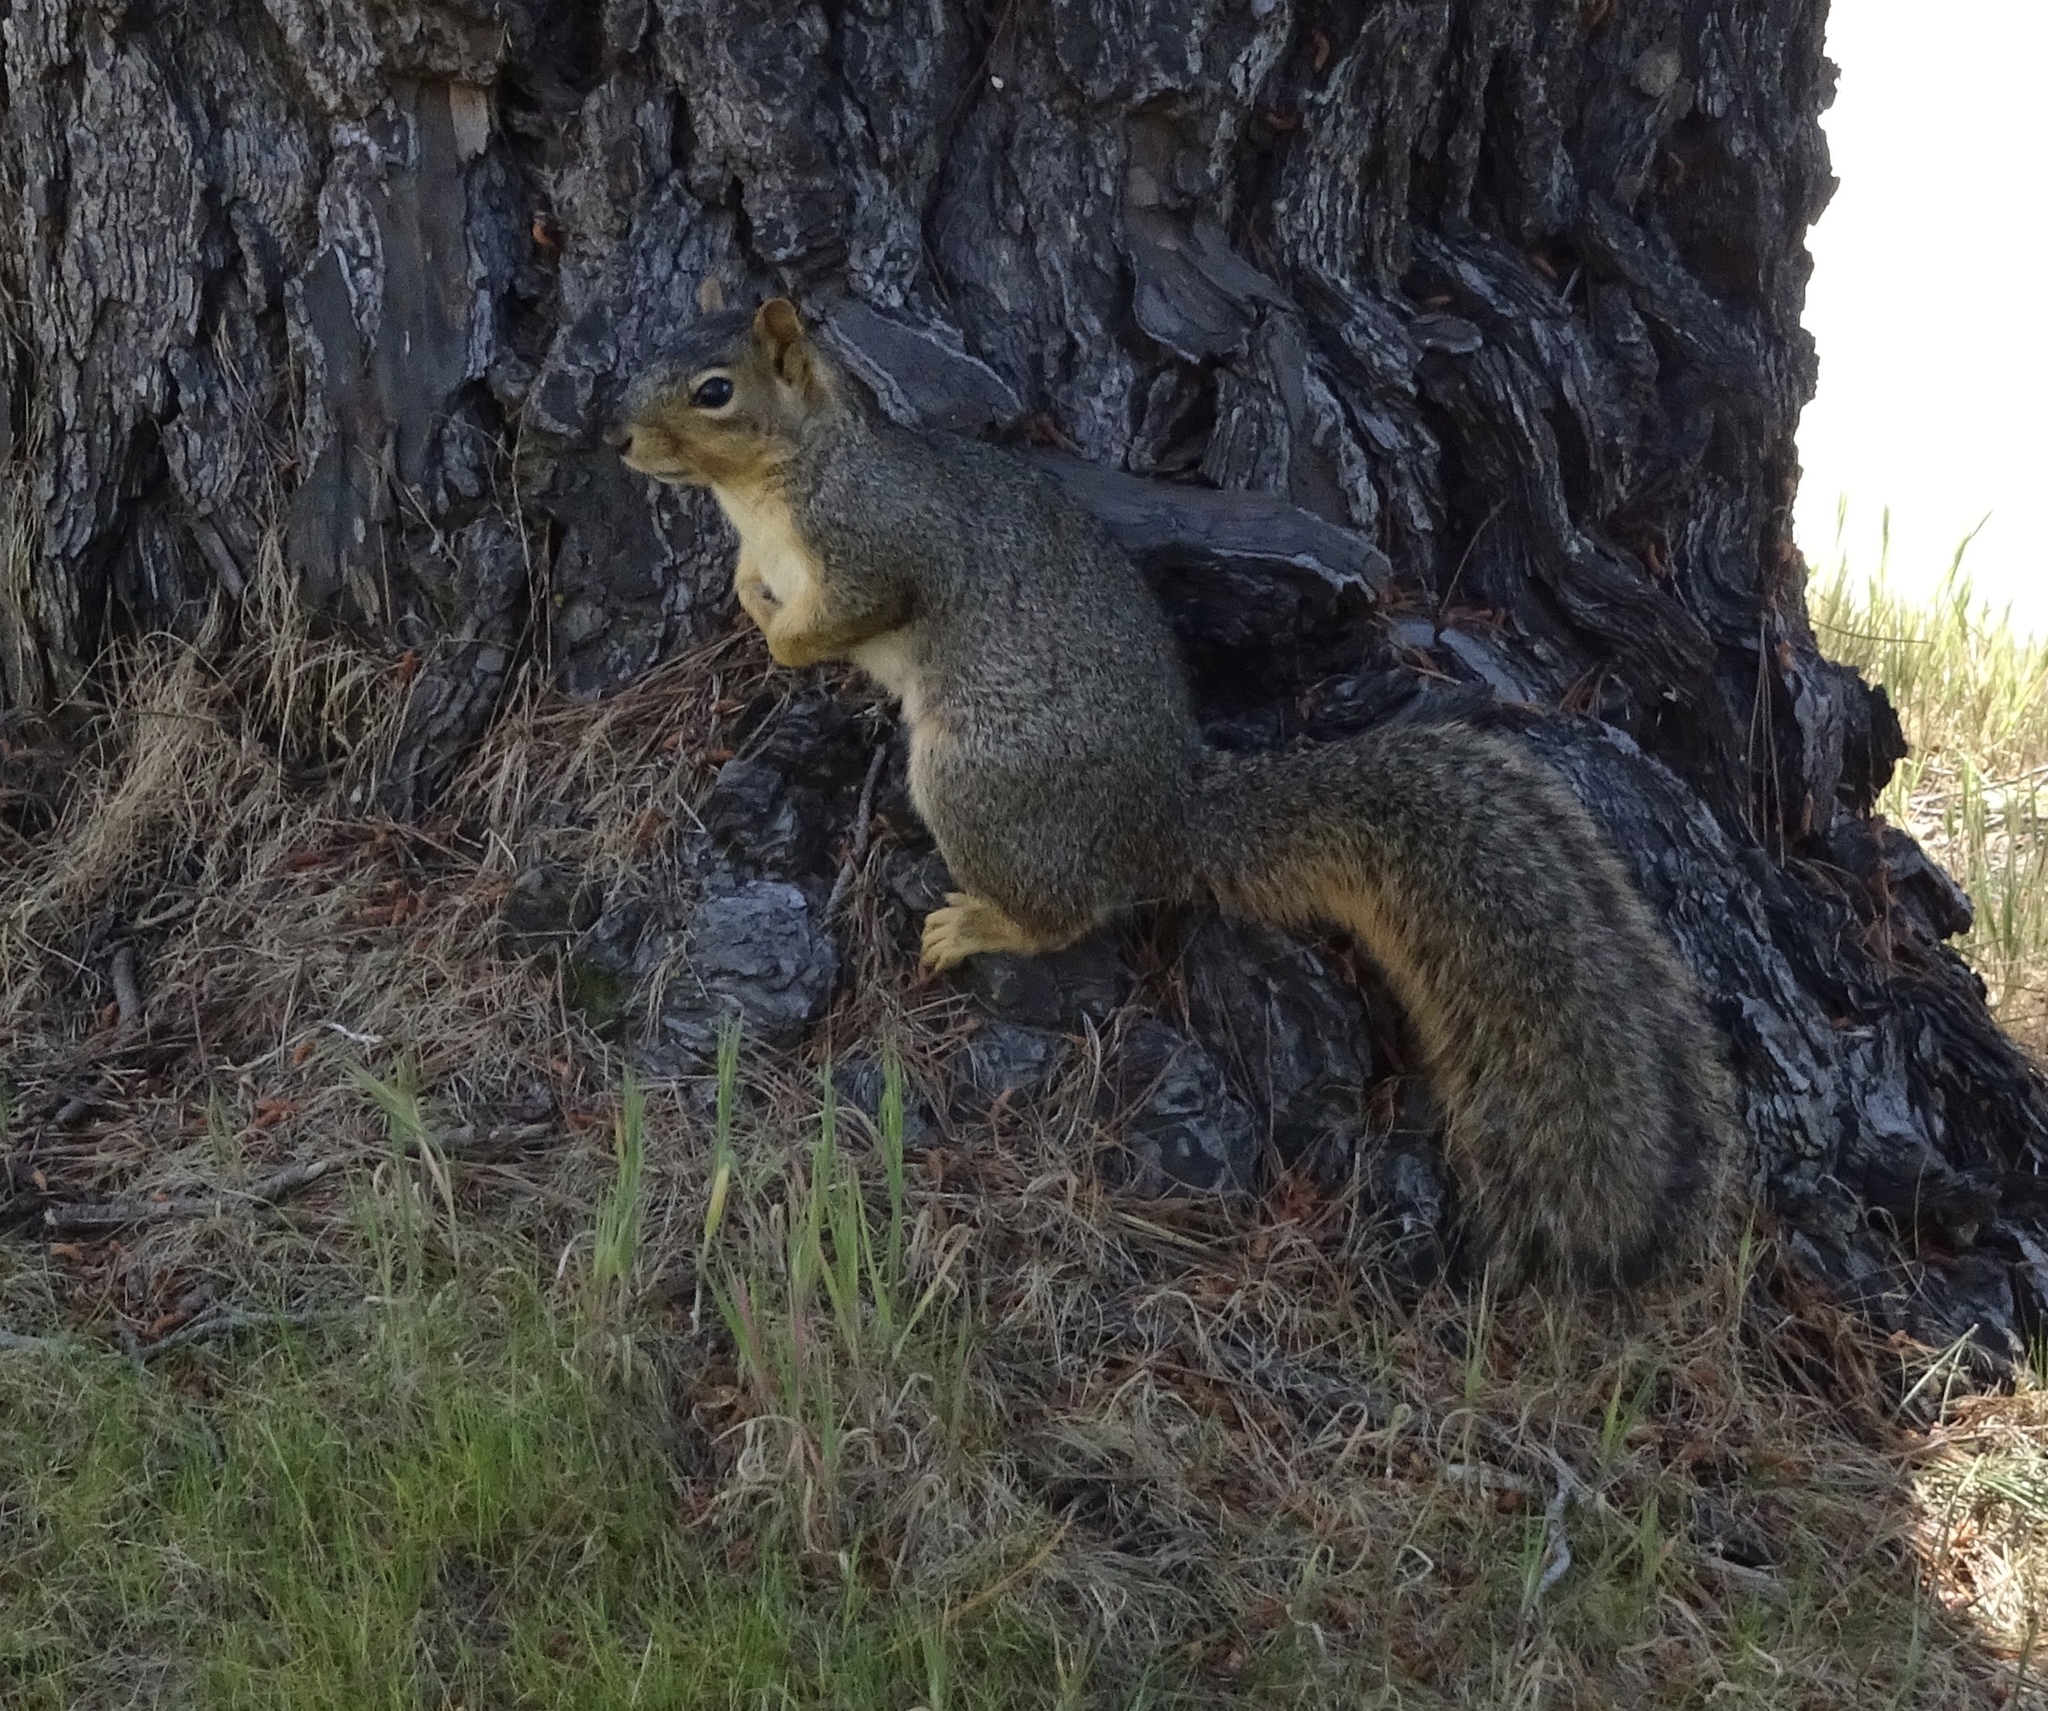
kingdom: Animalia
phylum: Chordata
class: Mammalia
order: Rodentia
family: Sciuridae
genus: Sciurus
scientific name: Sciurus niger
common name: Fox squirrel
